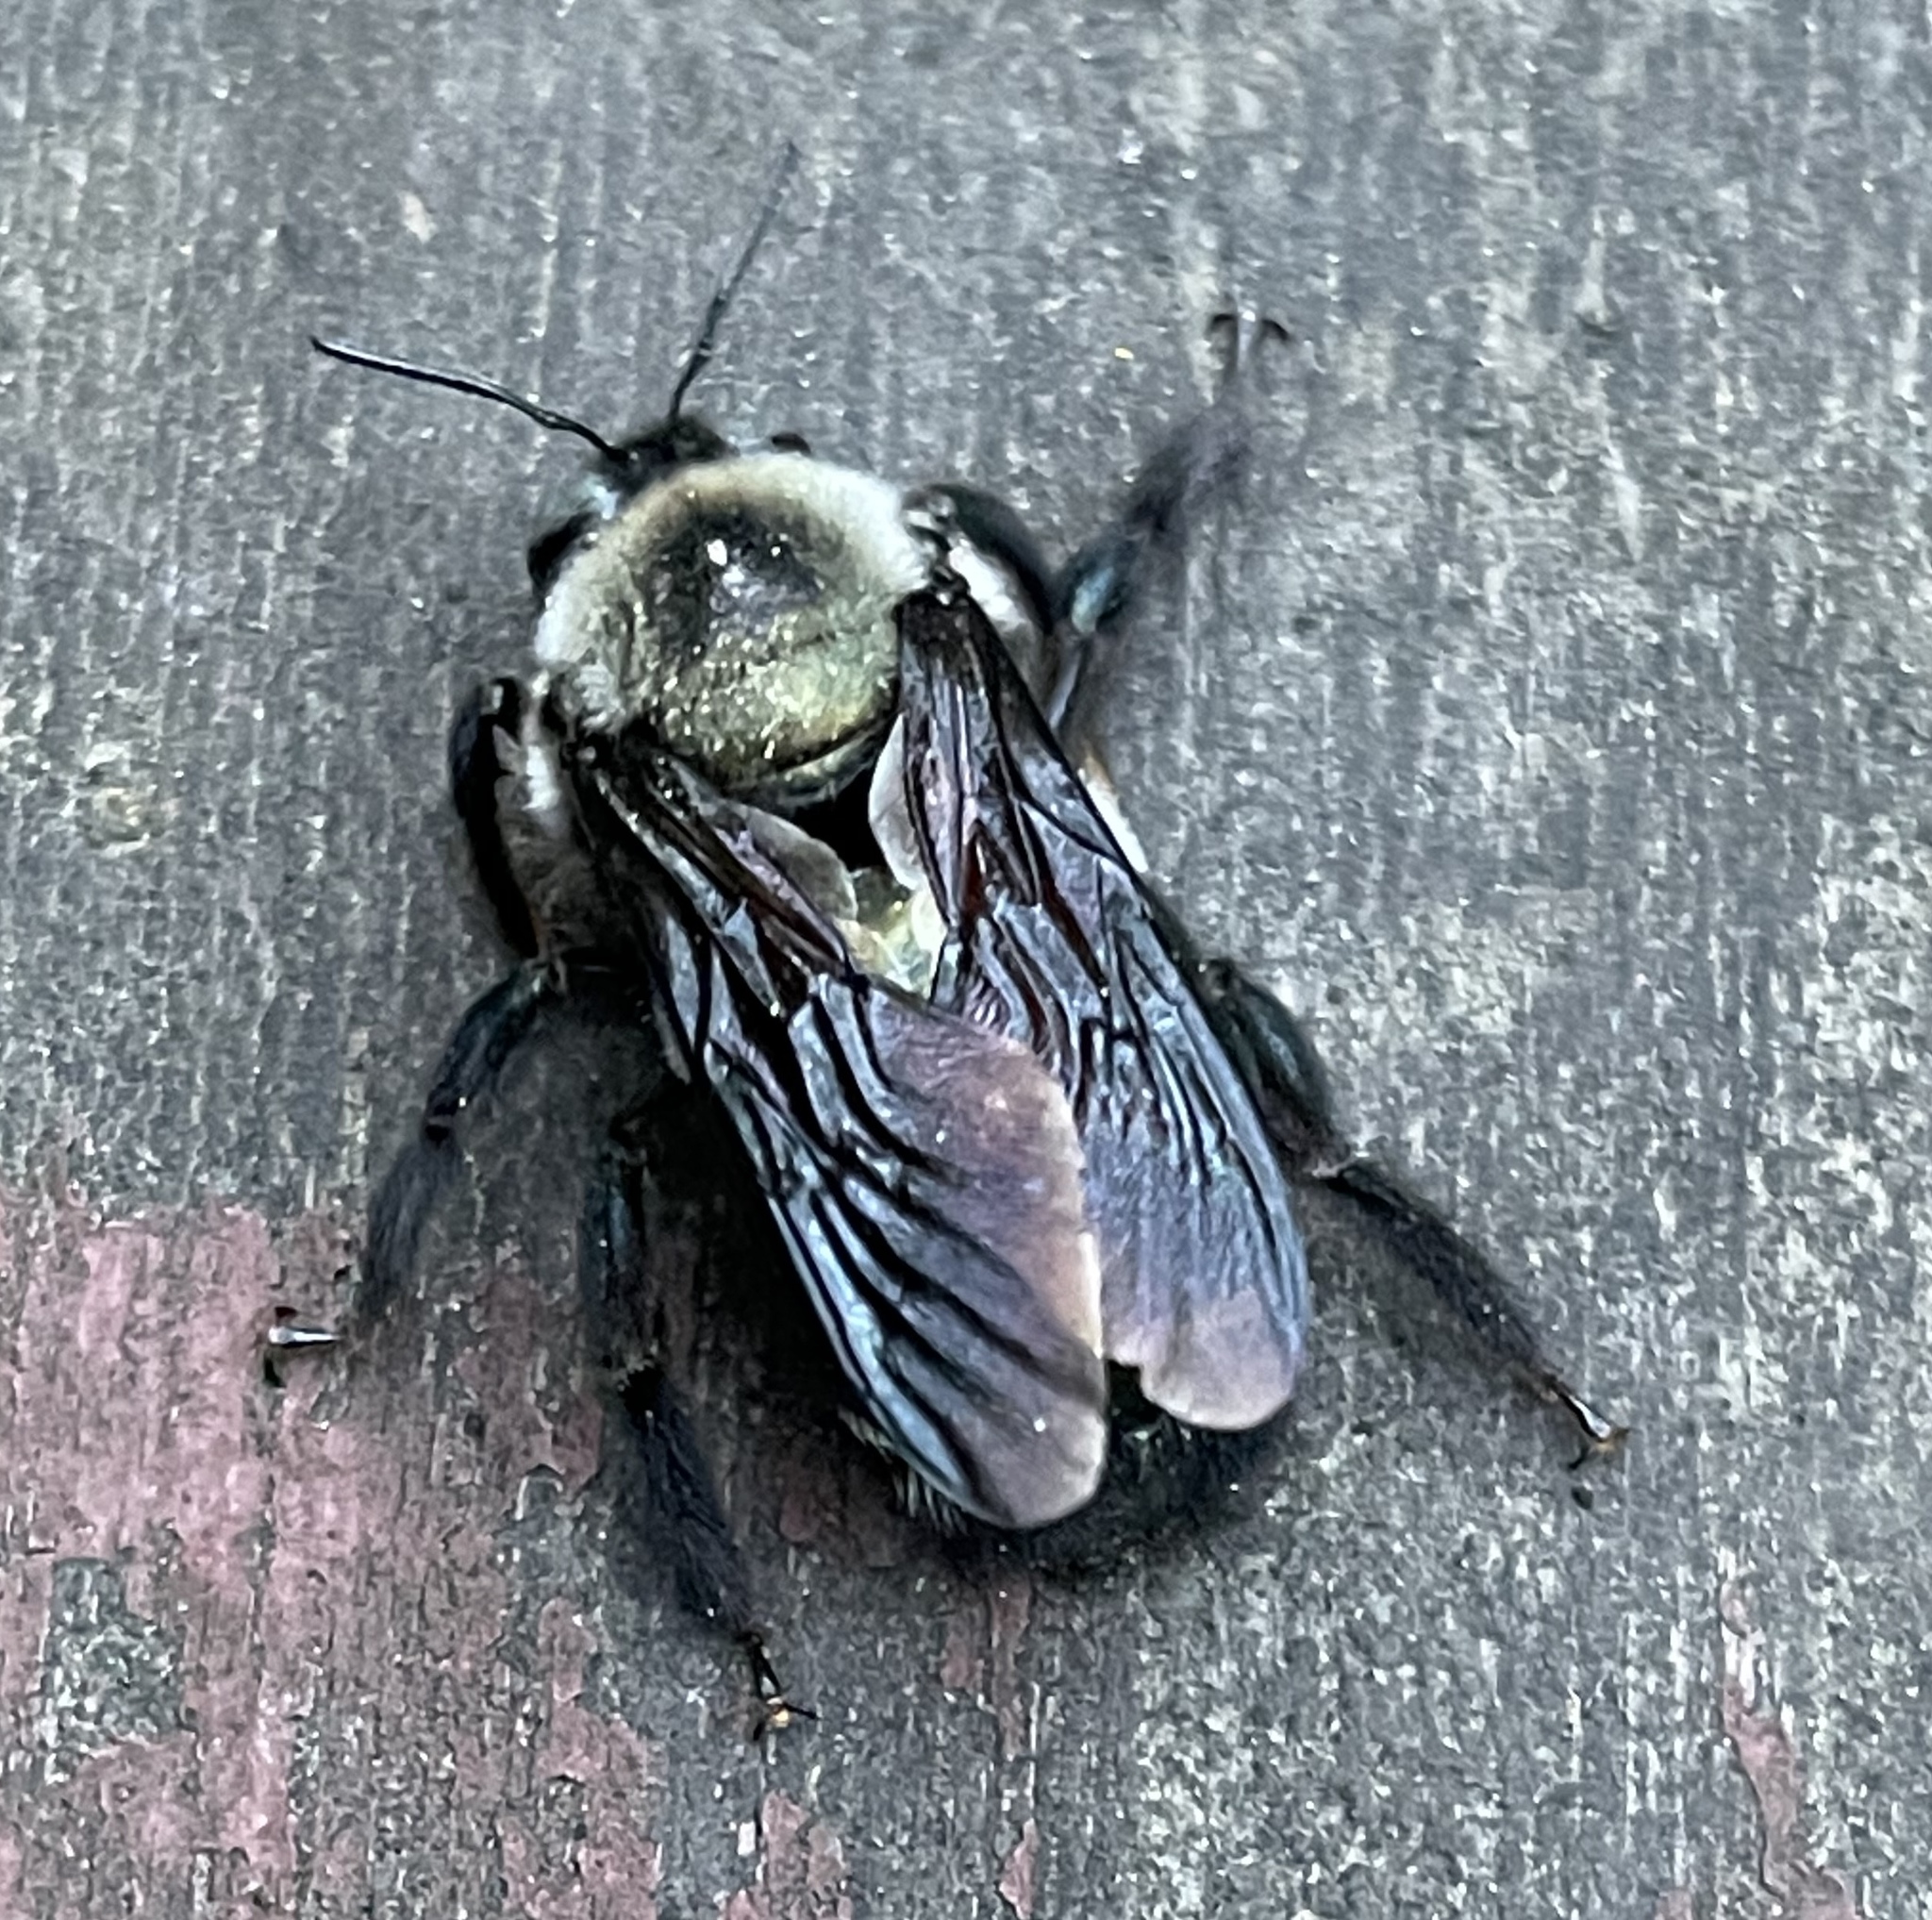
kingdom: Animalia
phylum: Arthropoda
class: Insecta
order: Hymenoptera
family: Apidae
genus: Xylocopa
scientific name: Xylocopa californica
